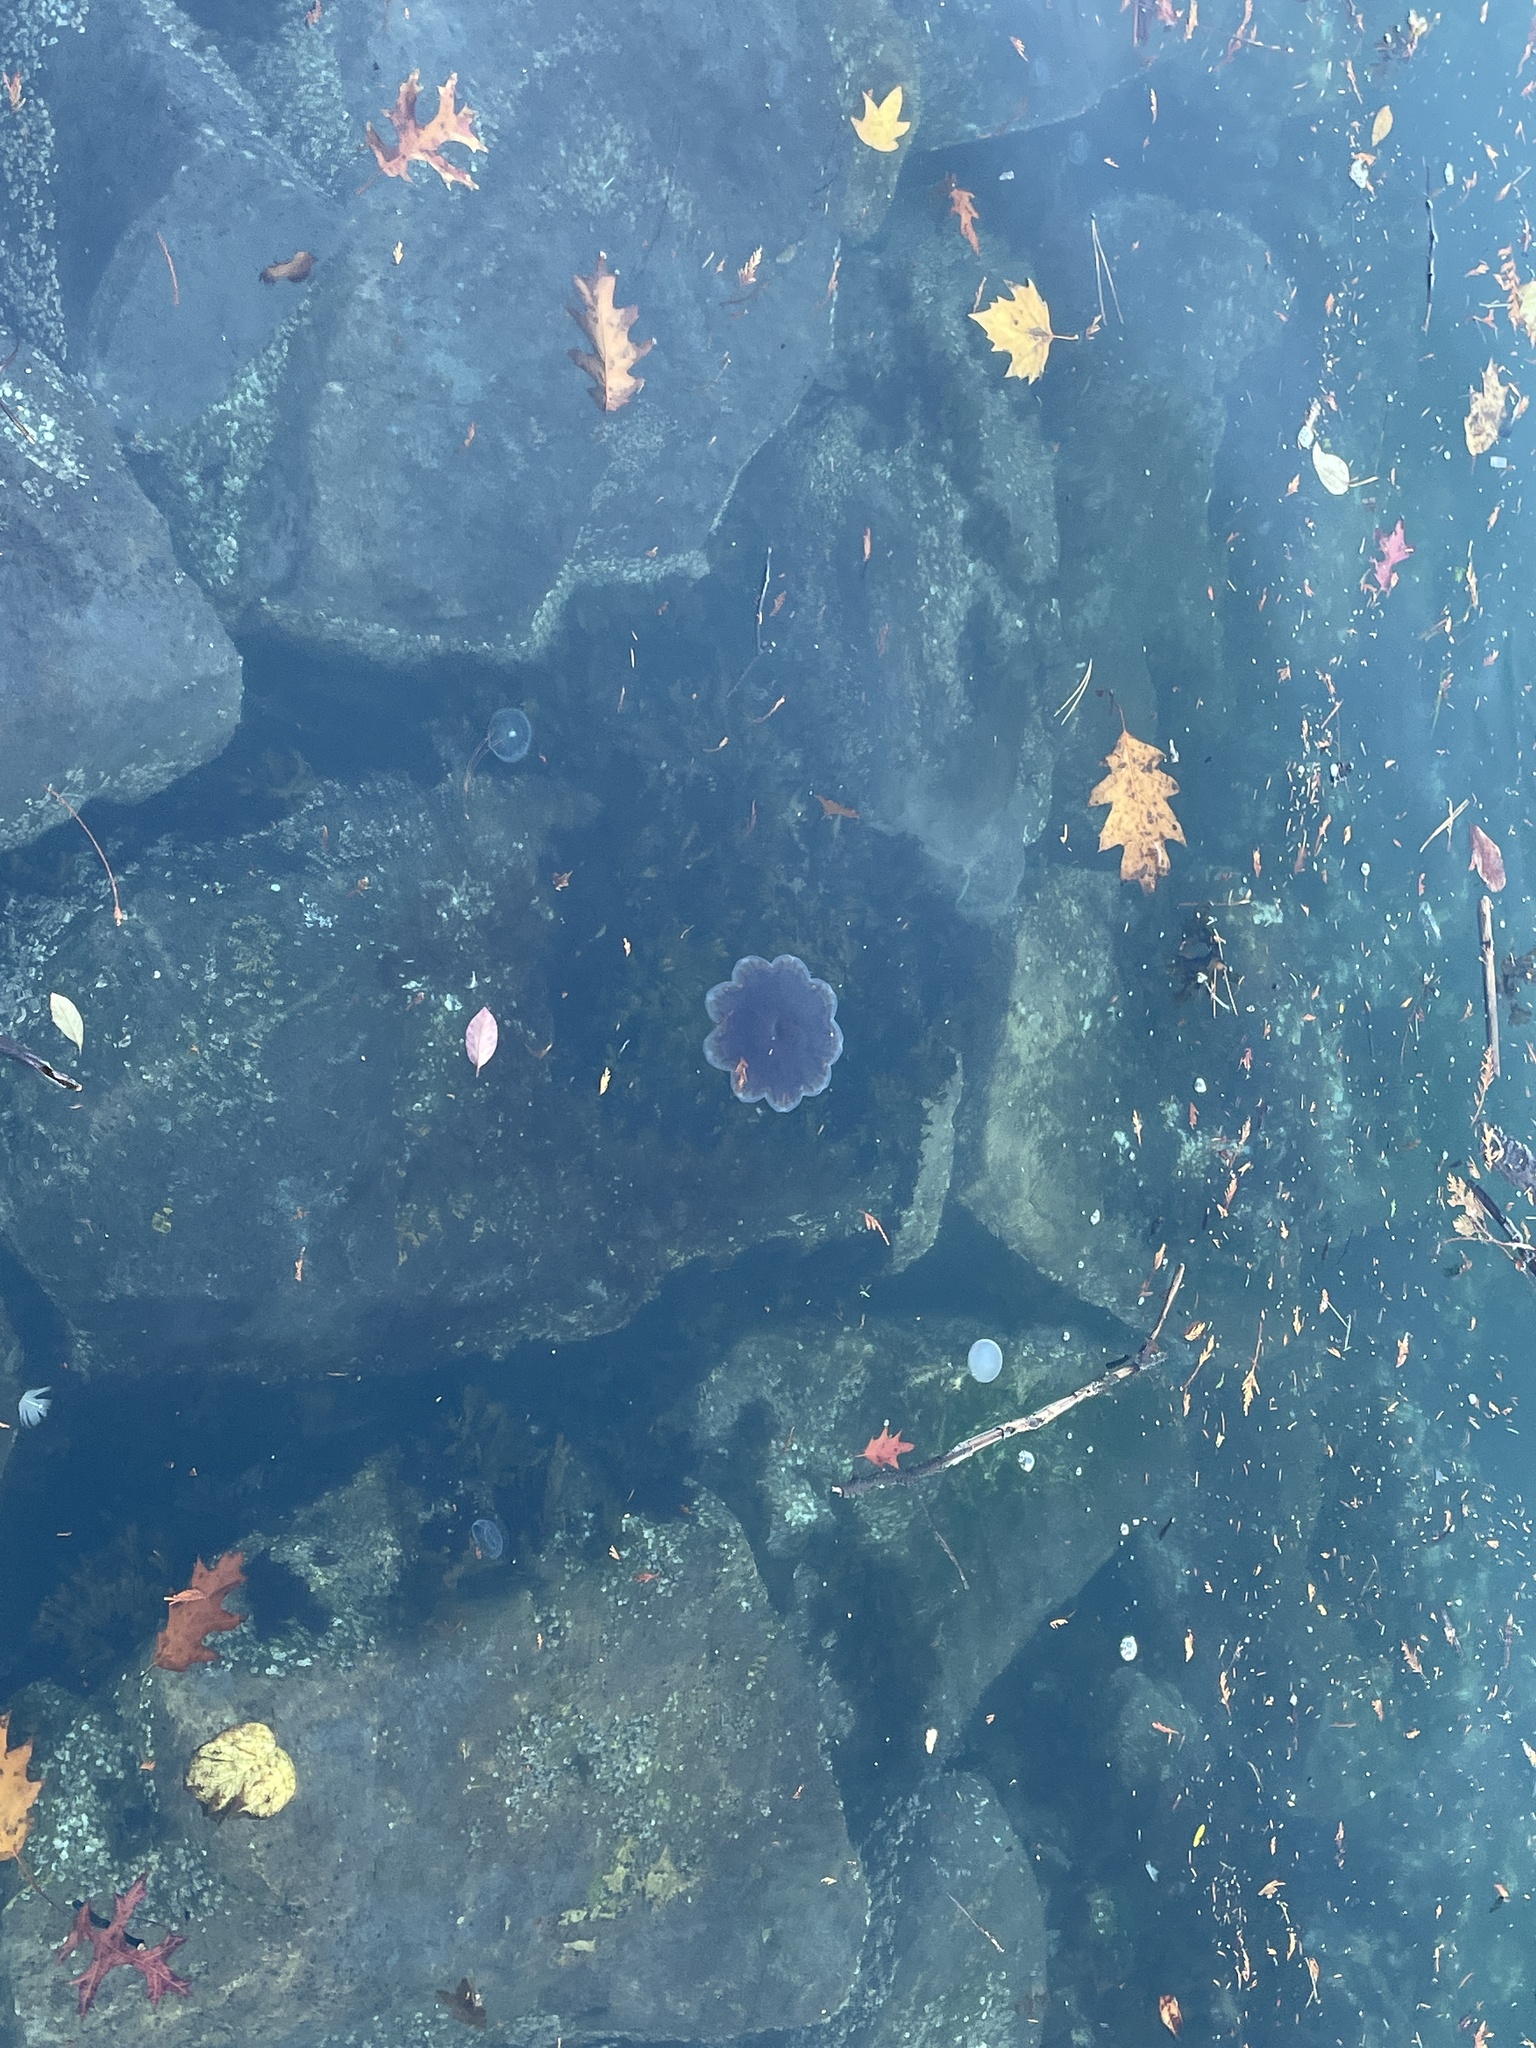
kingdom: Animalia
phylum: Cnidaria
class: Scyphozoa
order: Semaeostomeae
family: Cyaneidae
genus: Cyanea
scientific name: Cyanea ferruginea
